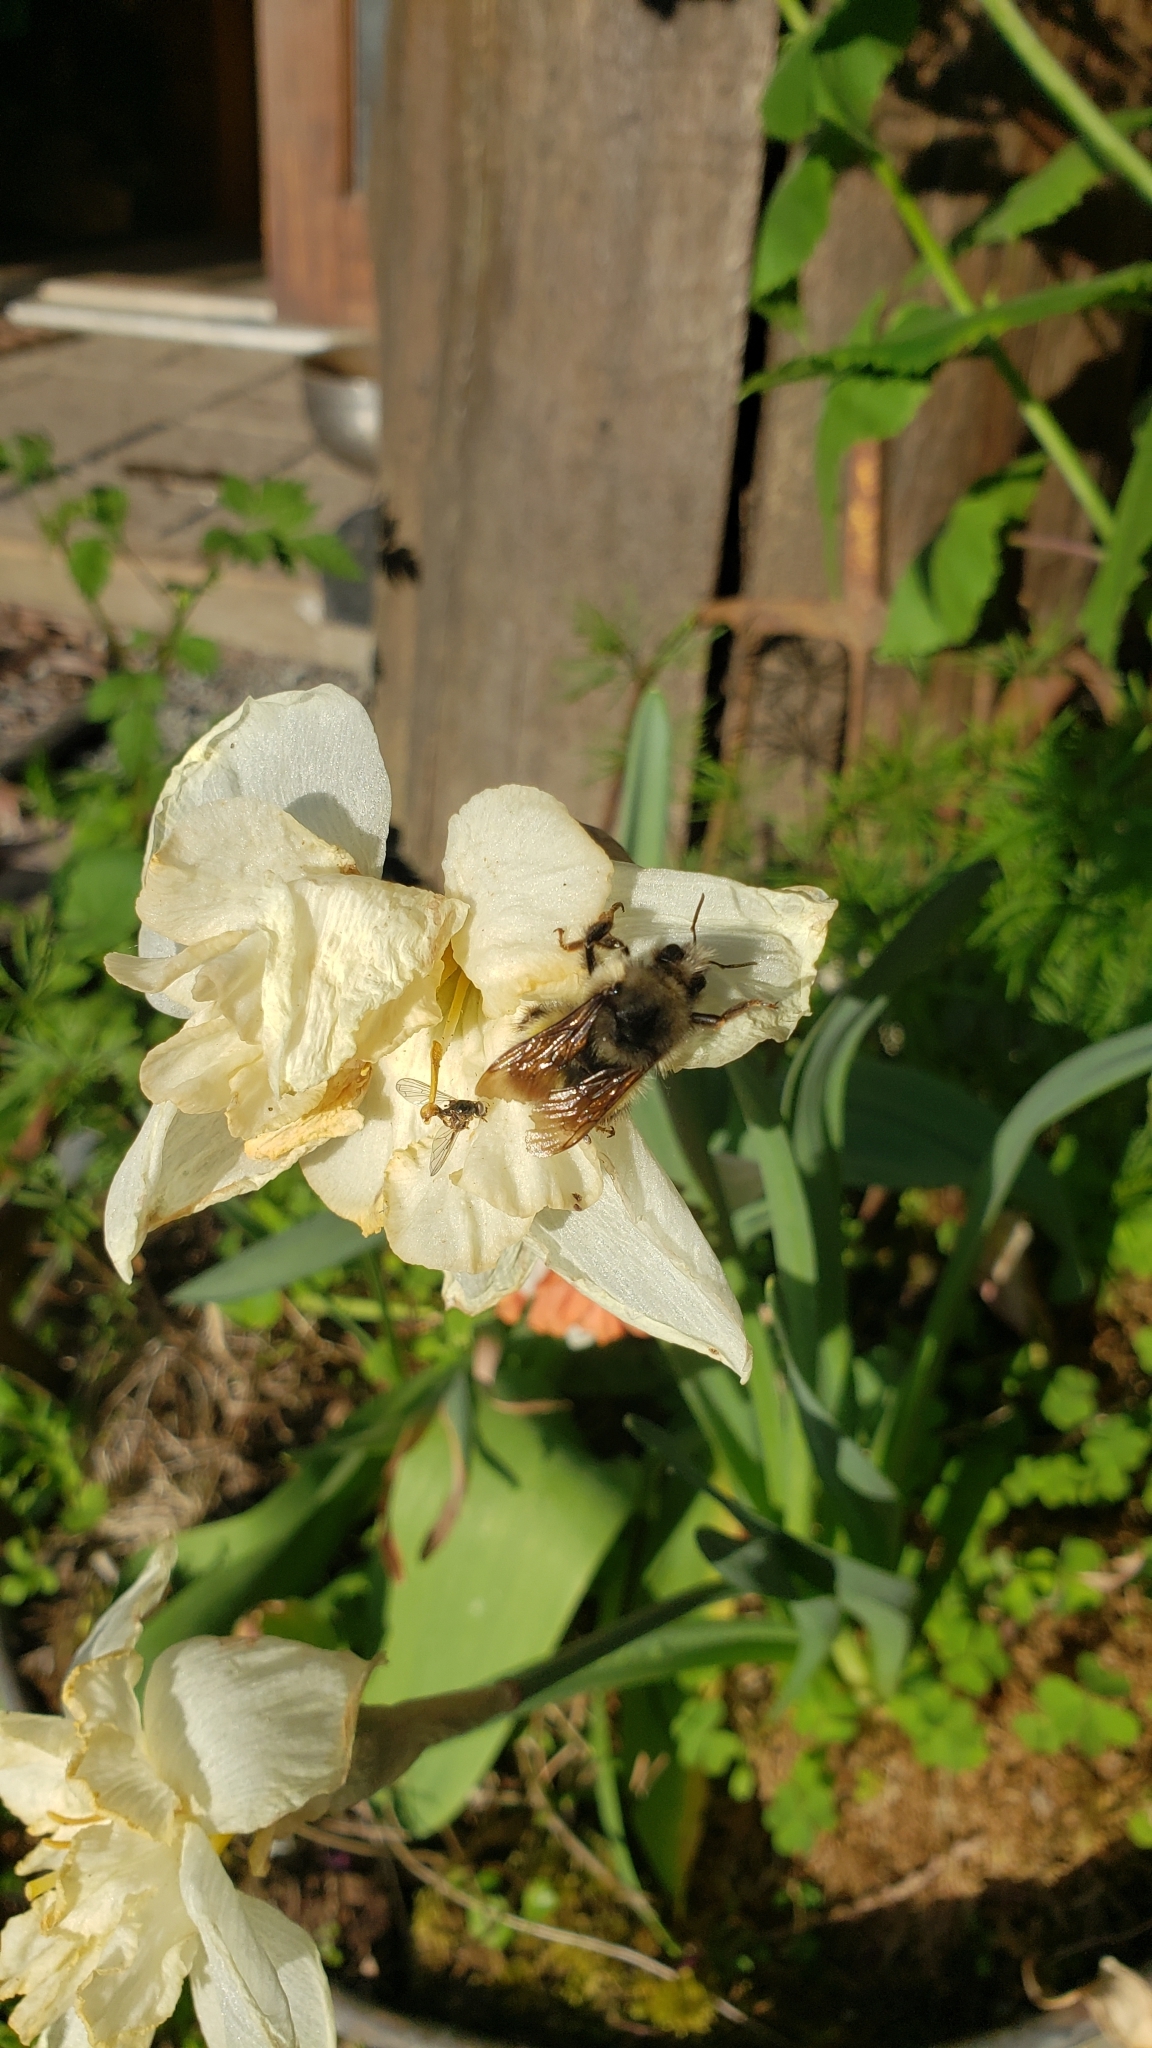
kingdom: Animalia
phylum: Arthropoda
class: Insecta
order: Hymenoptera
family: Apidae
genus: Bombus
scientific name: Bombus flavifrons
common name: Yellow head bumble bee
